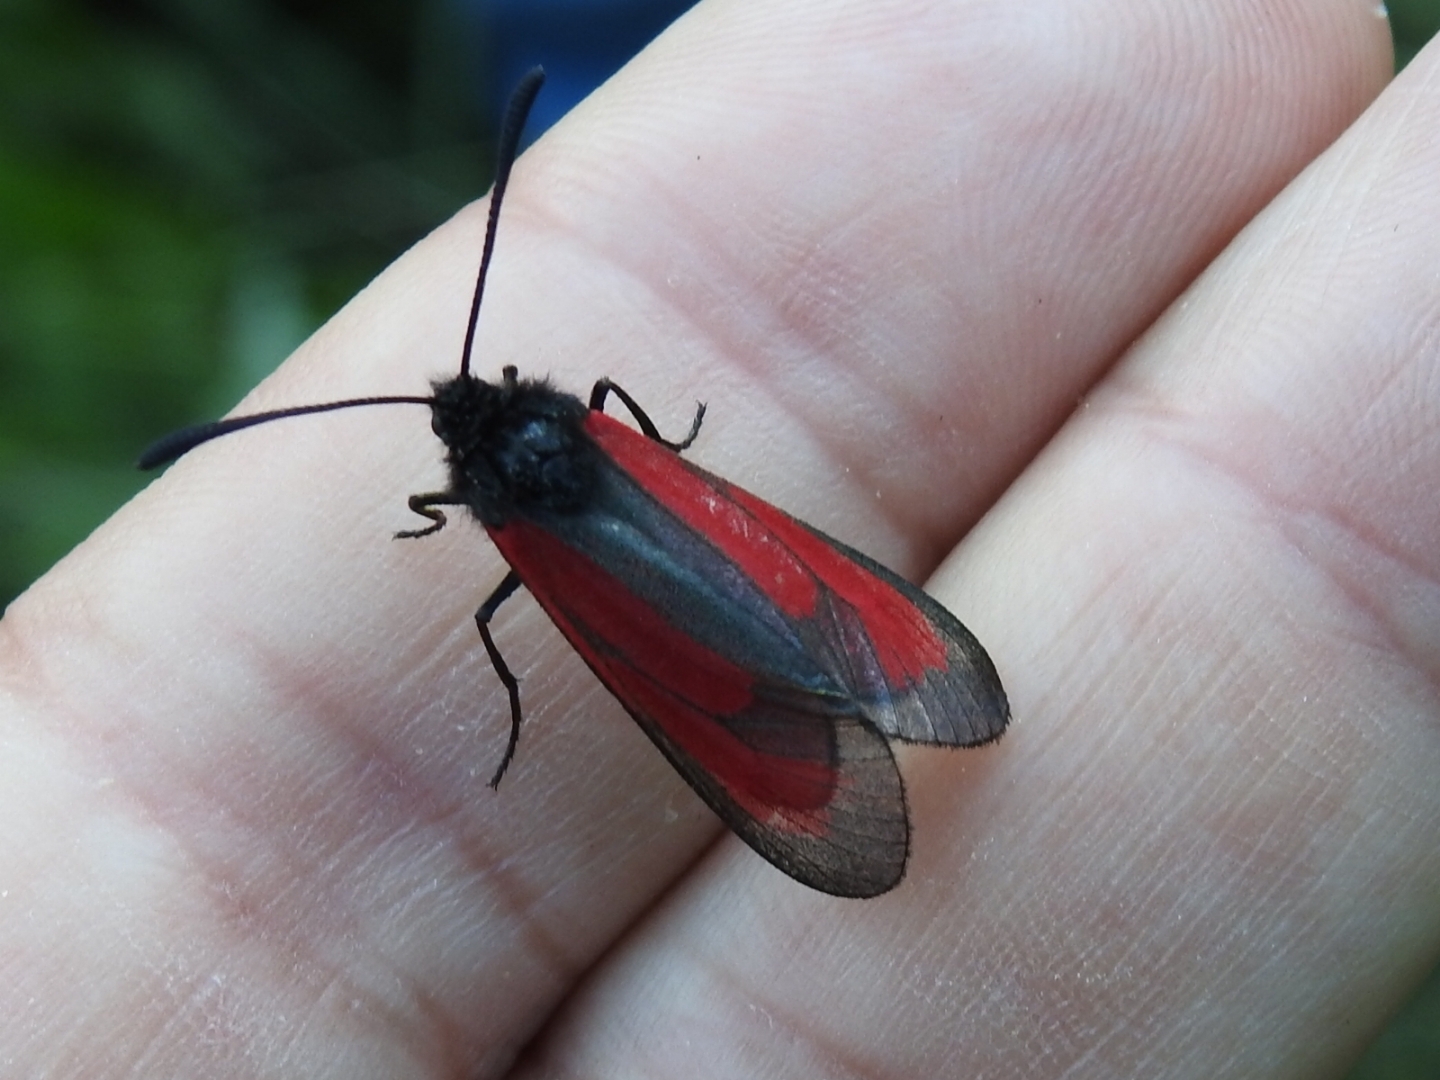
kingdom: Animalia
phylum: Arthropoda
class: Insecta
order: Lepidoptera
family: Zygaenidae
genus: Zygaena
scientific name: Zygaena purpuralis
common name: Transparent burnet
